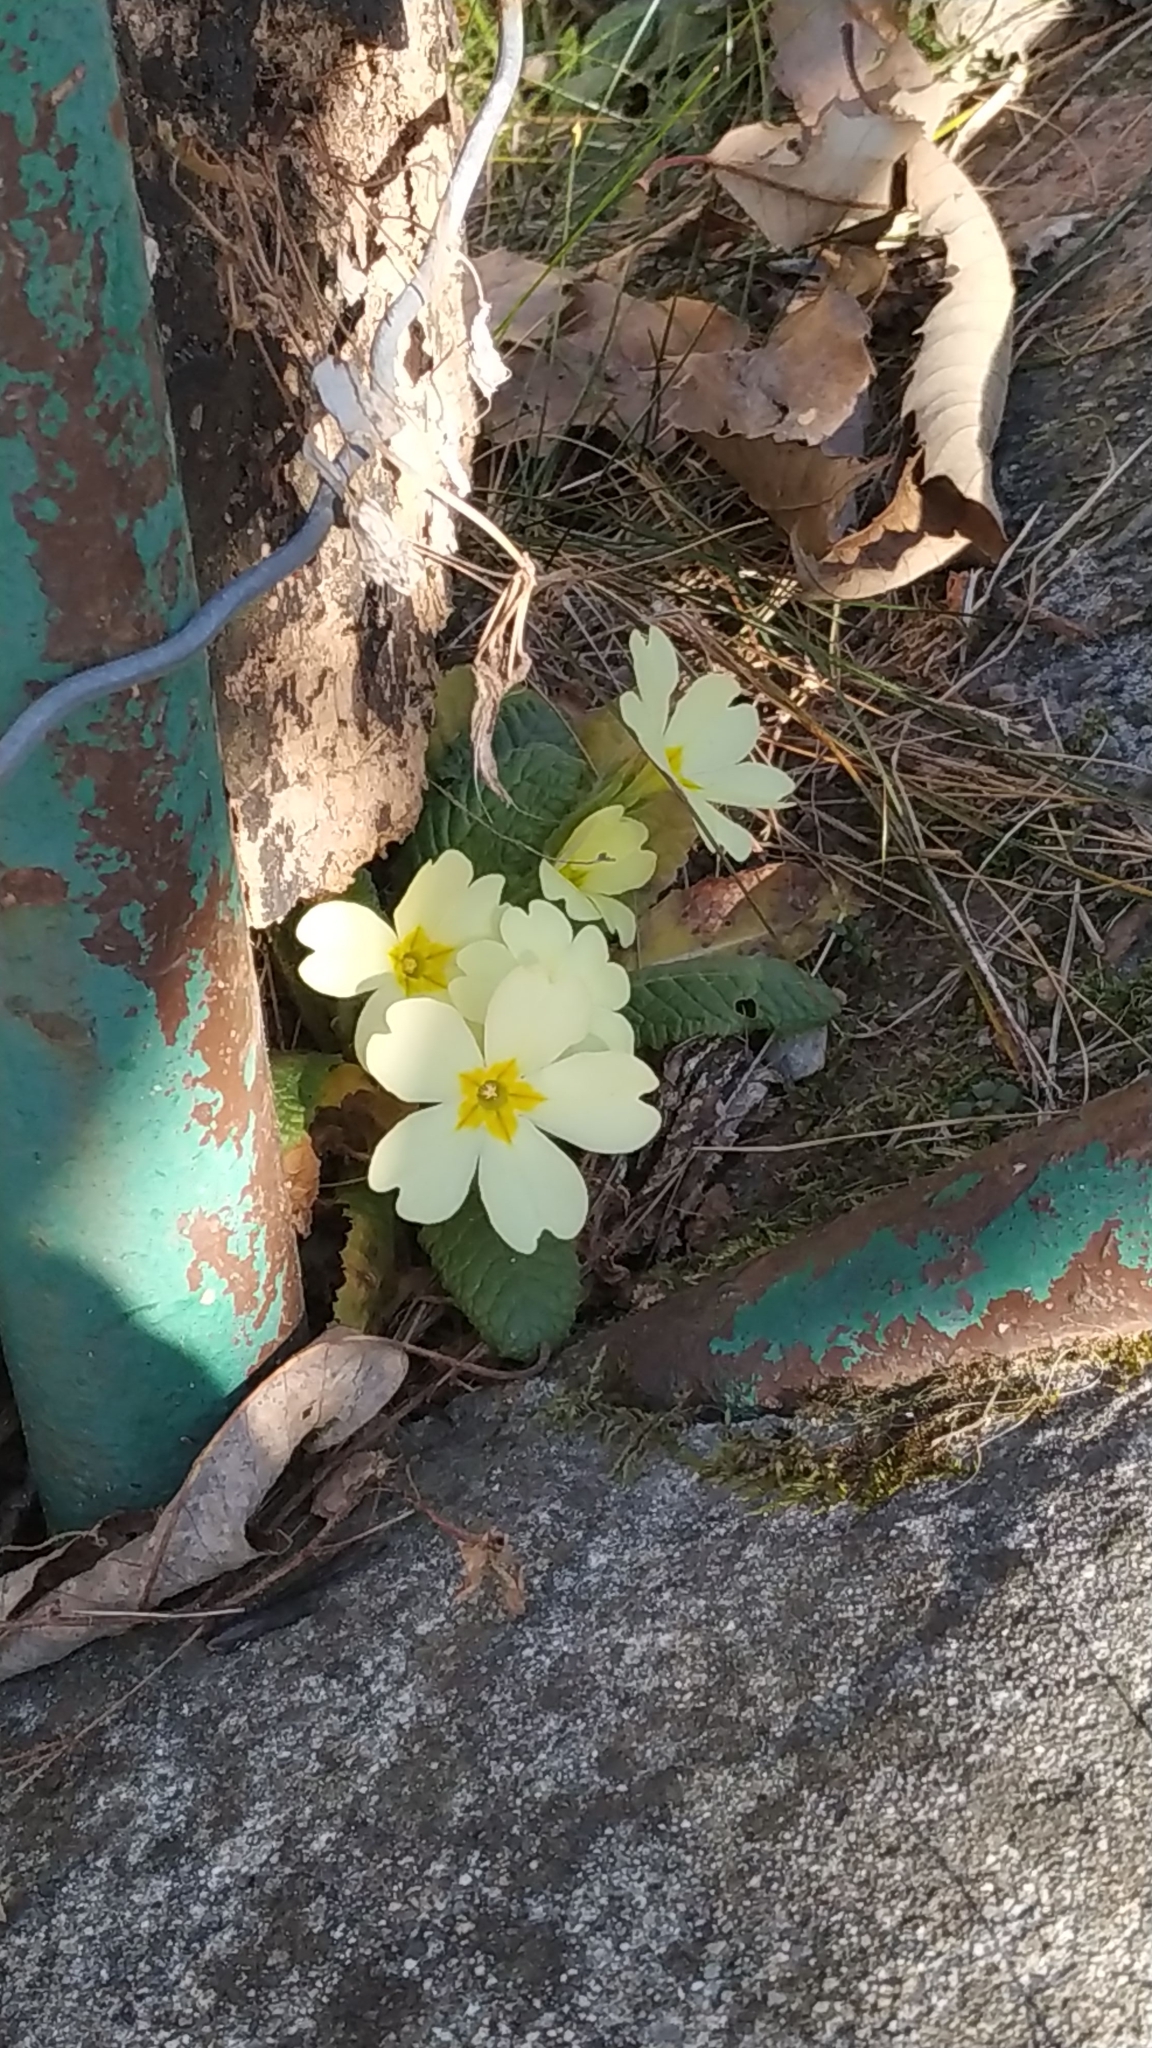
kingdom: Plantae
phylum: Tracheophyta
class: Magnoliopsida
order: Ericales
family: Primulaceae
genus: Primula
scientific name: Primula vulgaris
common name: Primrose
